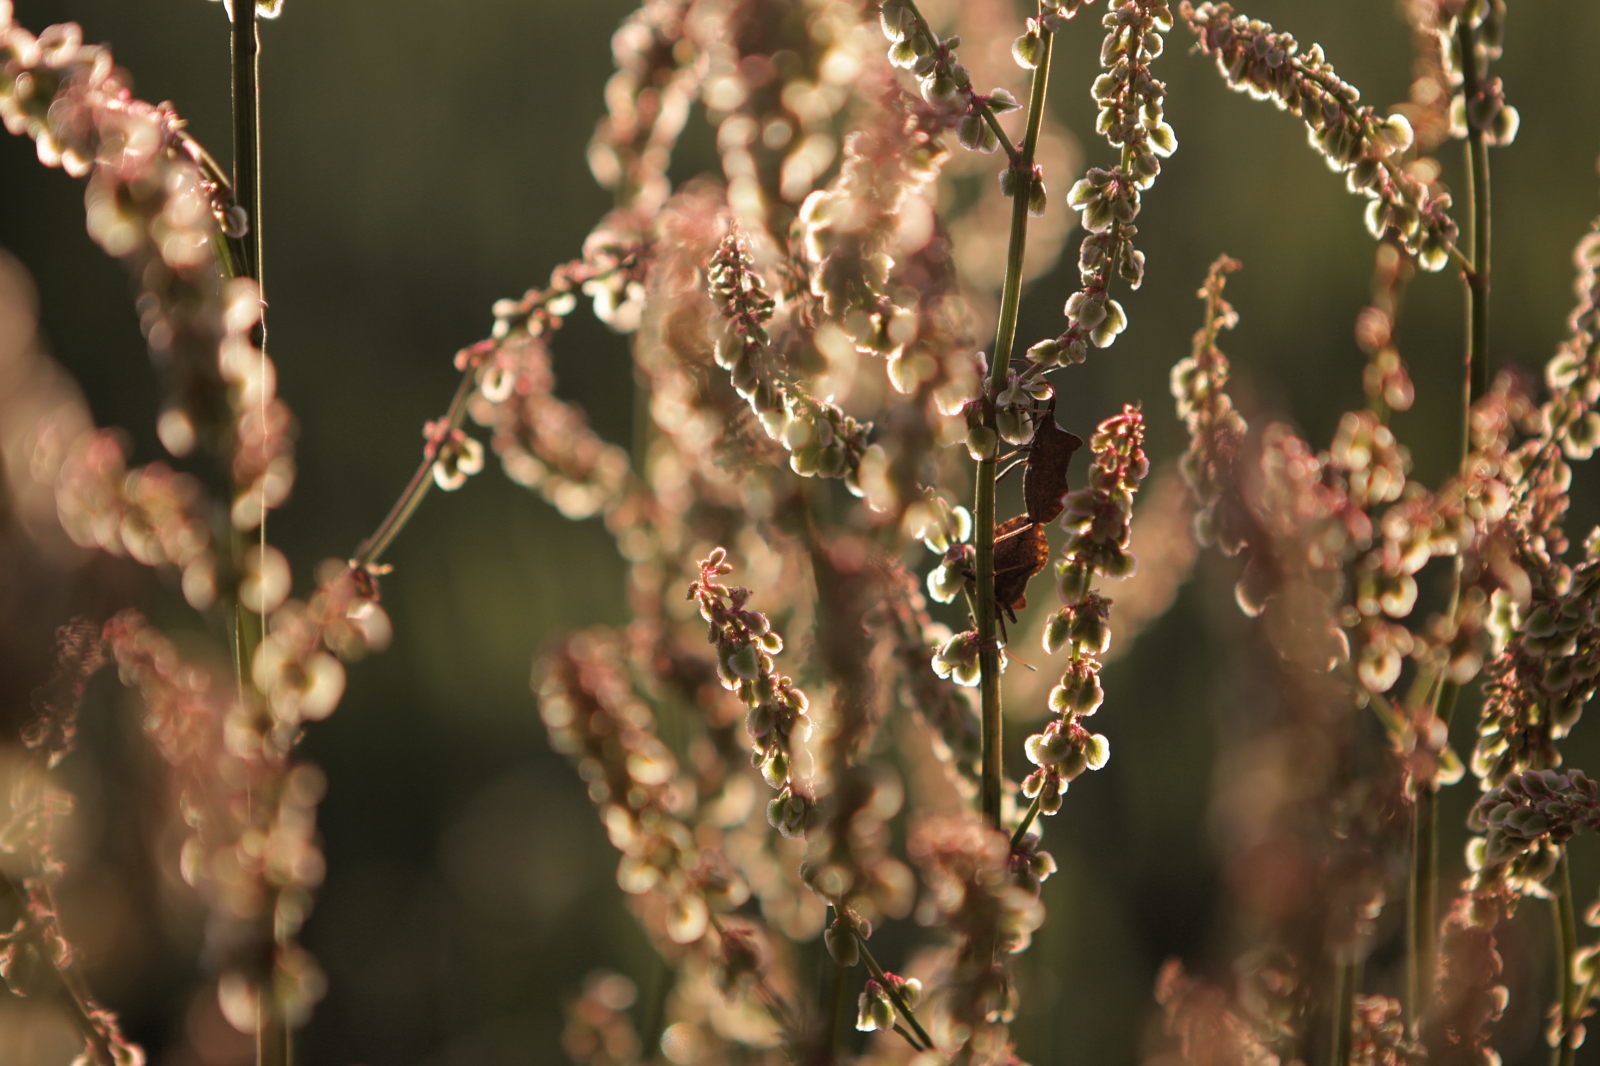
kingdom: Animalia
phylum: Arthropoda
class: Insecta
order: Hemiptera
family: Coreidae
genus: Coreus
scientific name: Coreus marginatus
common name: Dock bug
